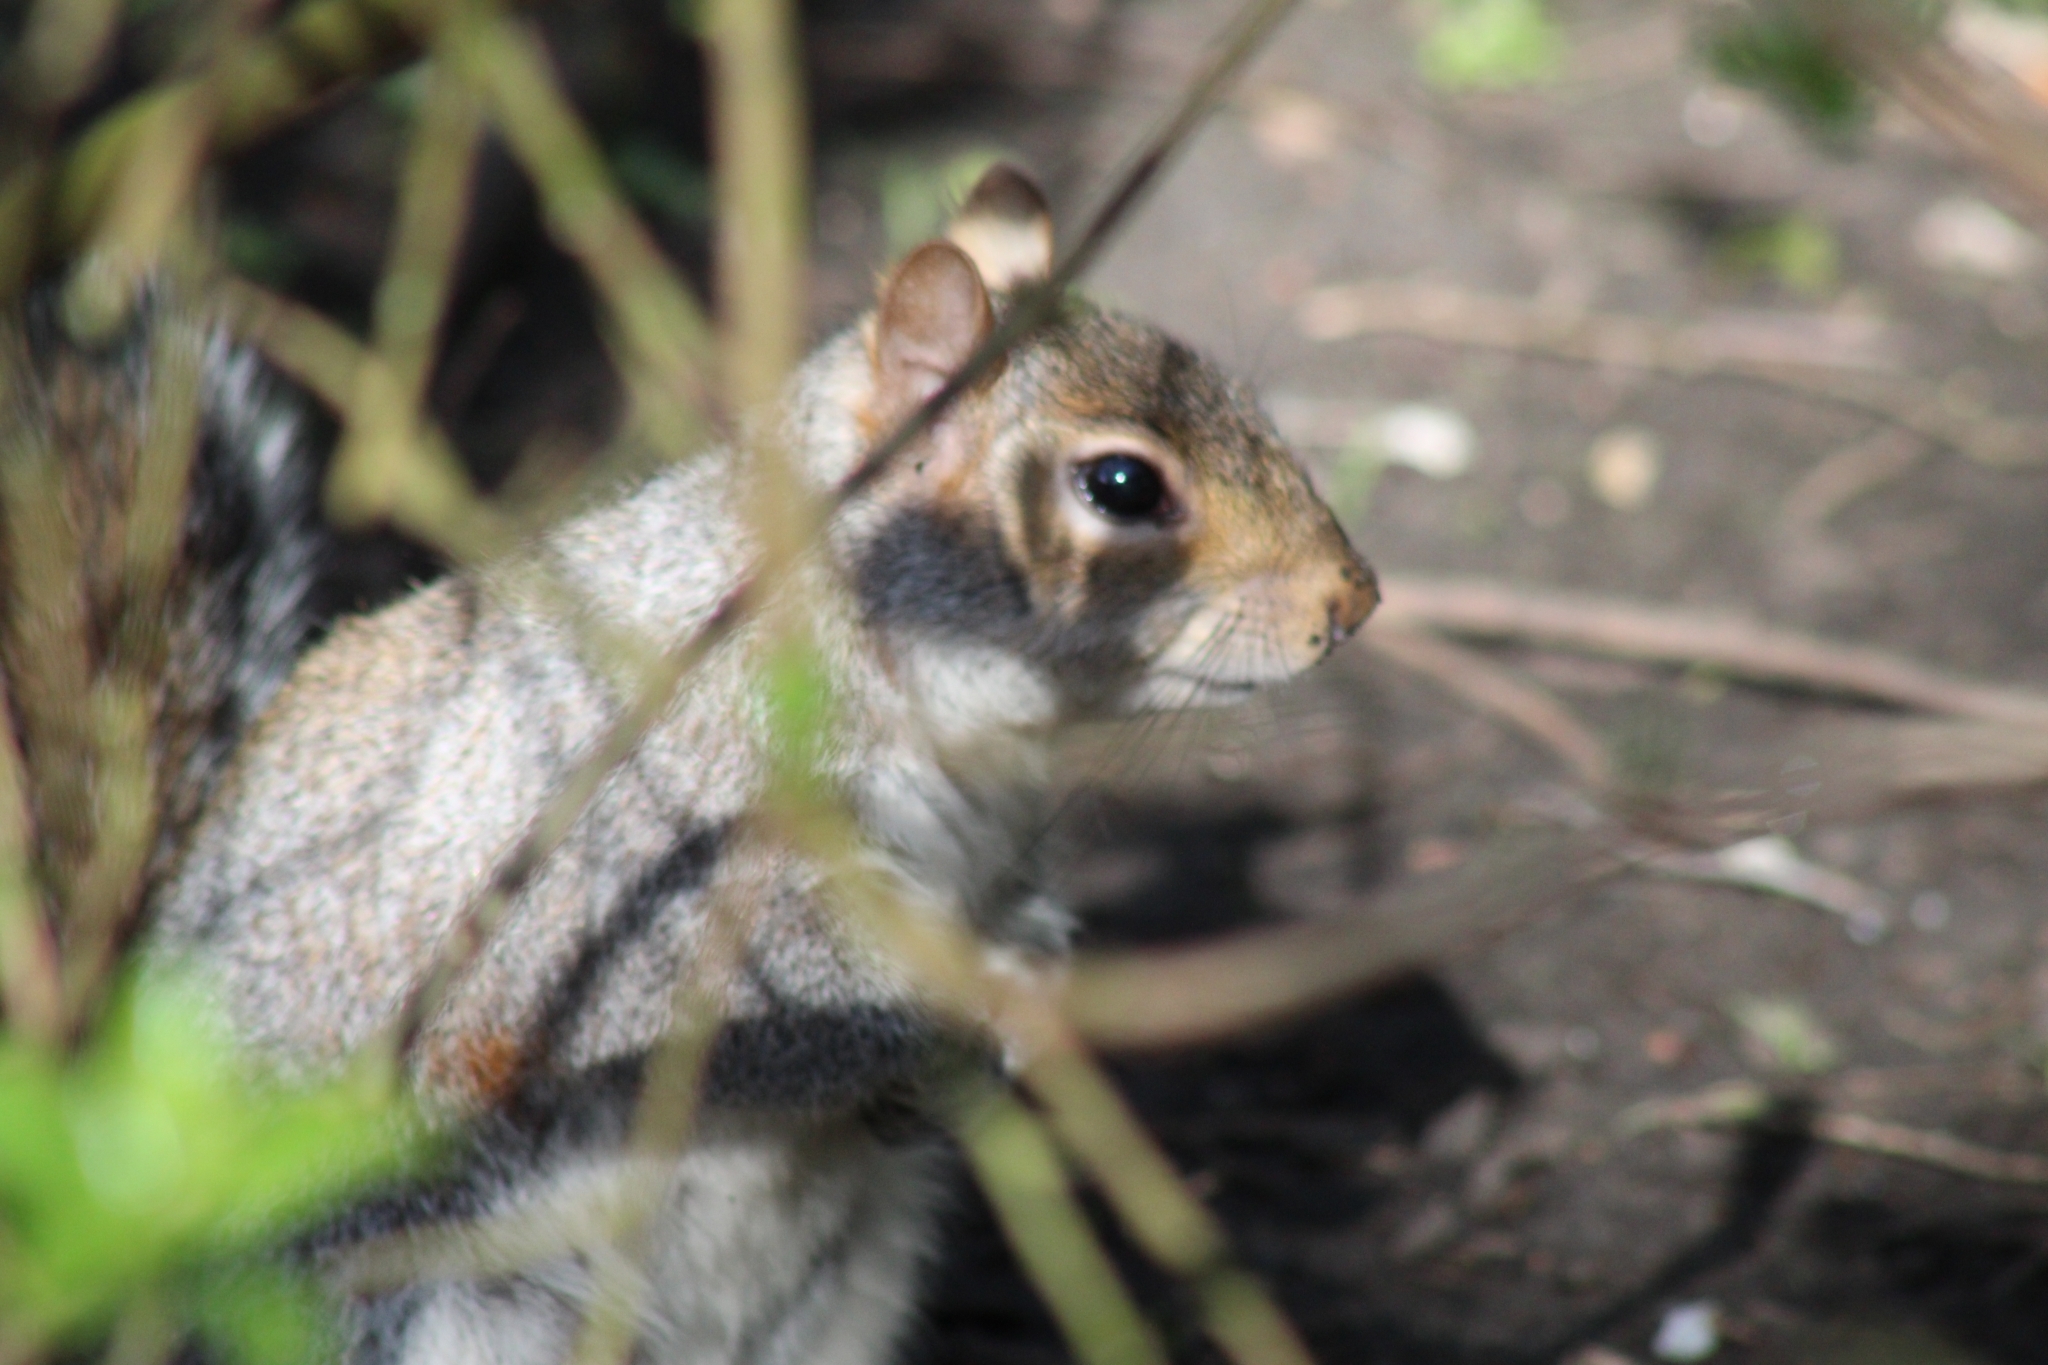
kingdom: Animalia
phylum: Chordata
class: Mammalia
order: Rodentia
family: Sciuridae
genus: Sciurus
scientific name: Sciurus carolinensis
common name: Eastern gray squirrel
